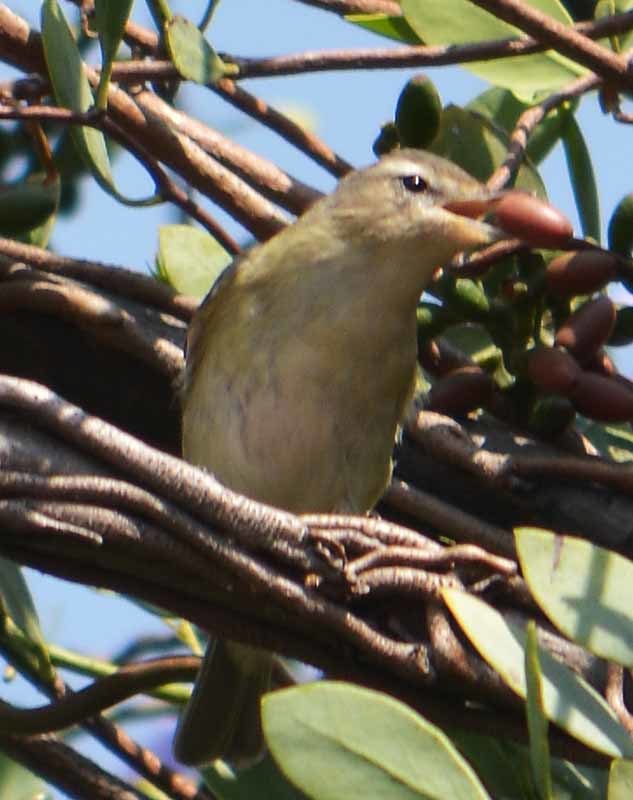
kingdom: Animalia
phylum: Chordata
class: Aves
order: Passeriformes
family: Vireonidae
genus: Vireo
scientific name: Vireo gilvus
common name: Warbling vireo
